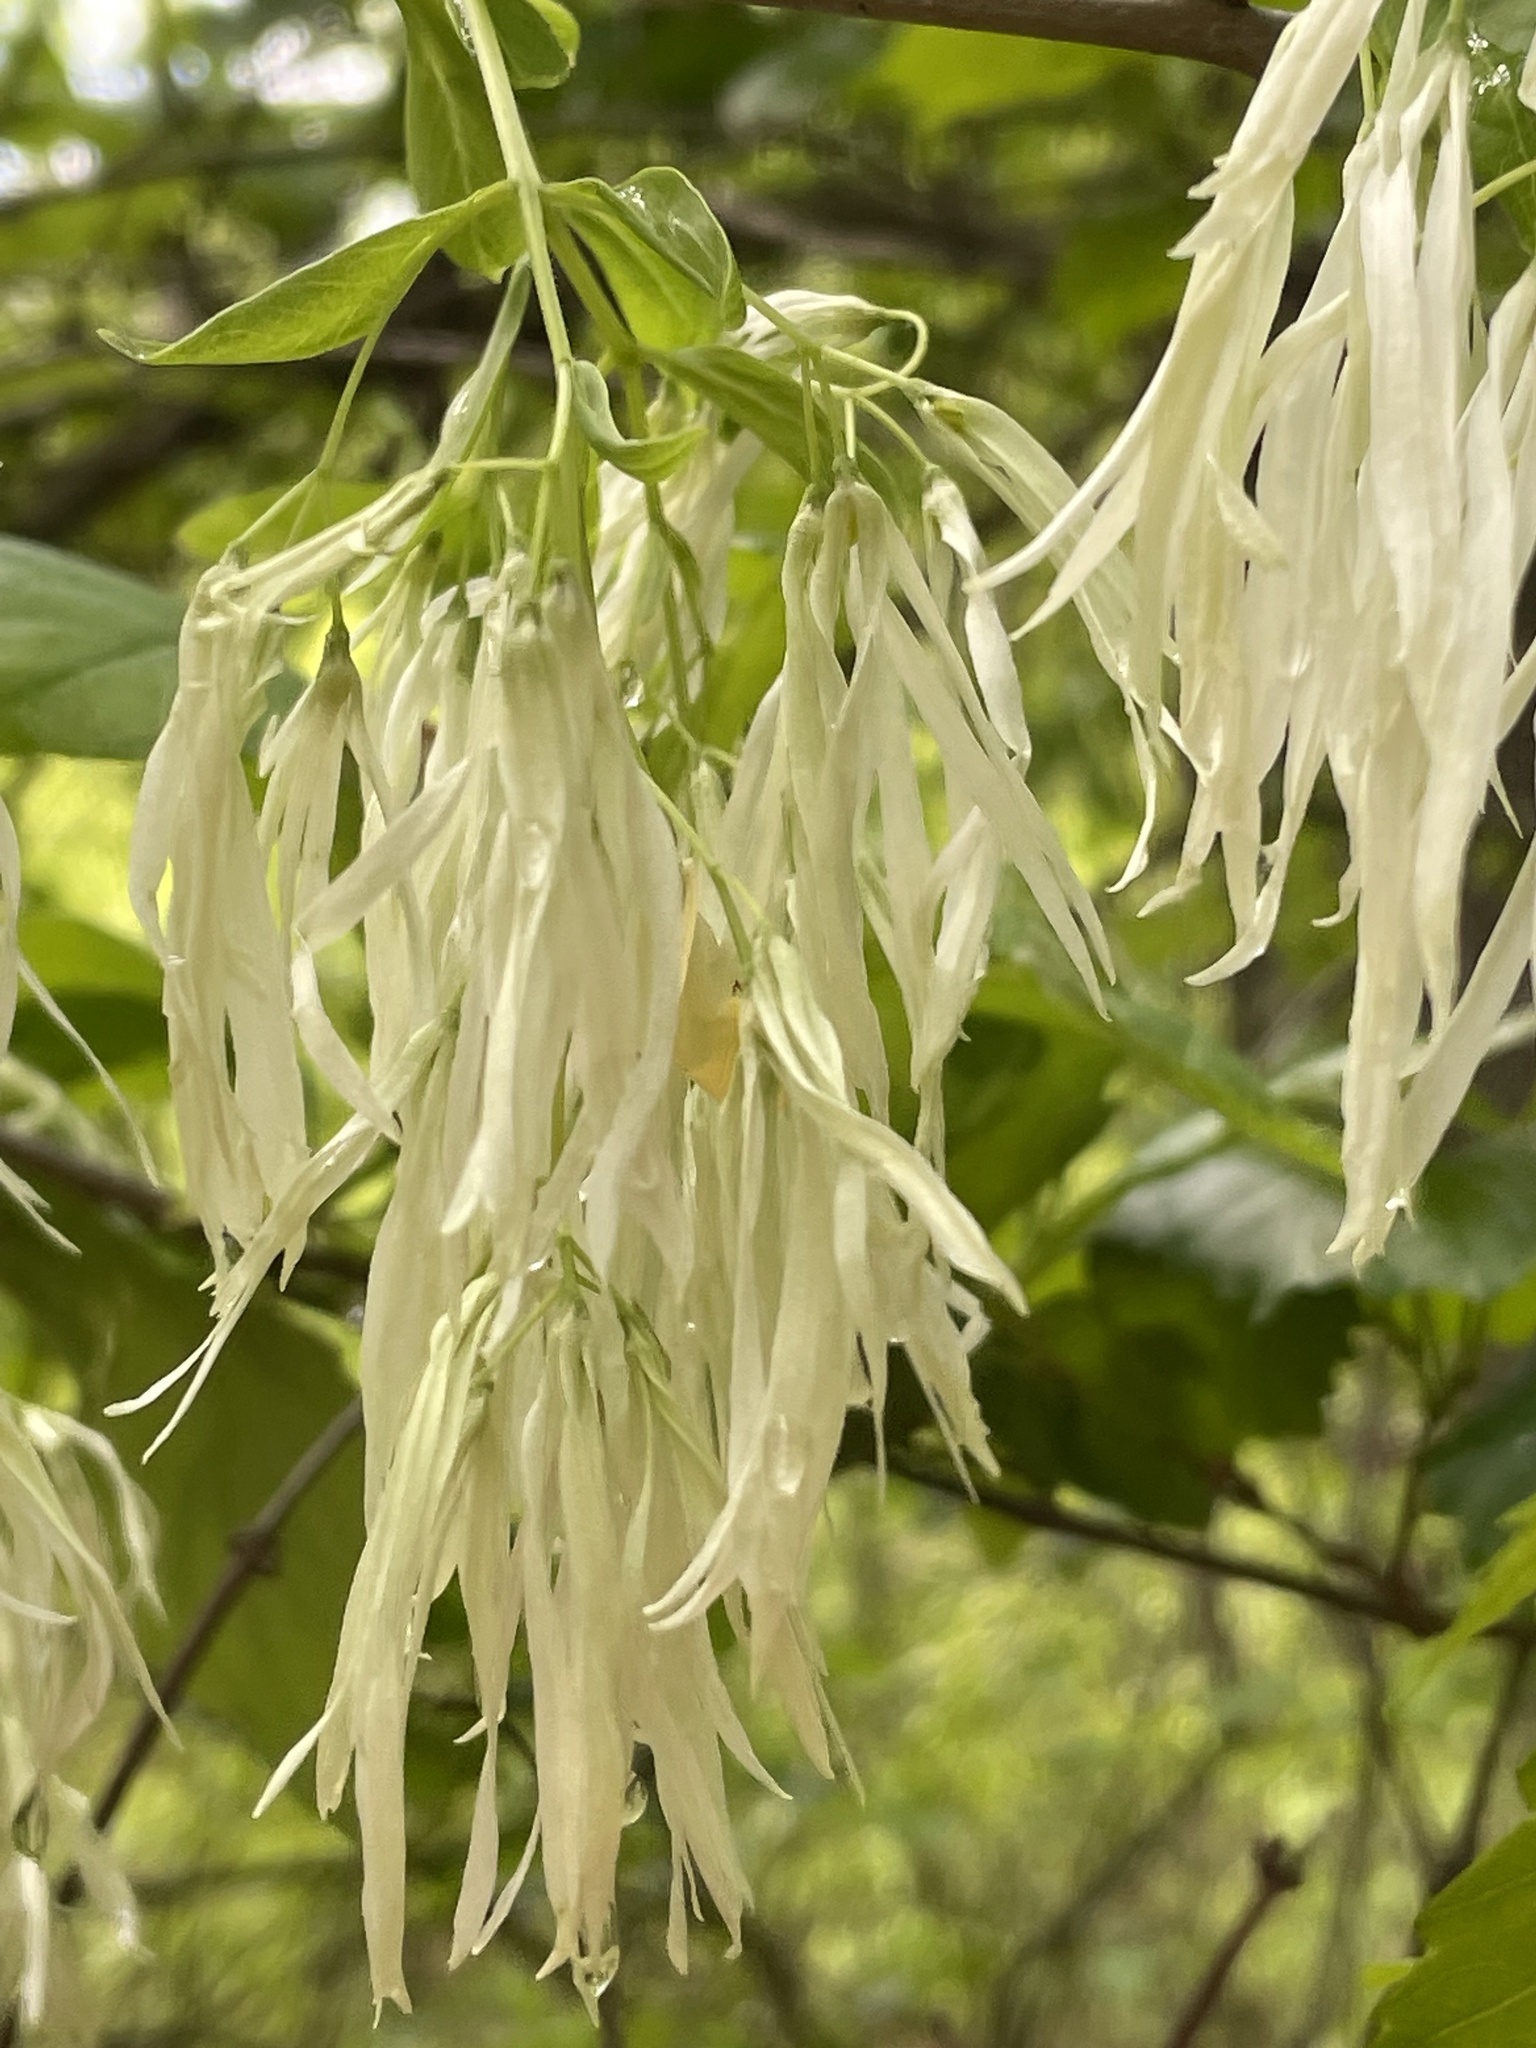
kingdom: Plantae
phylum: Tracheophyta
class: Magnoliopsida
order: Lamiales
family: Oleaceae
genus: Chionanthus
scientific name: Chionanthus virginicus
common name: American fringetree
